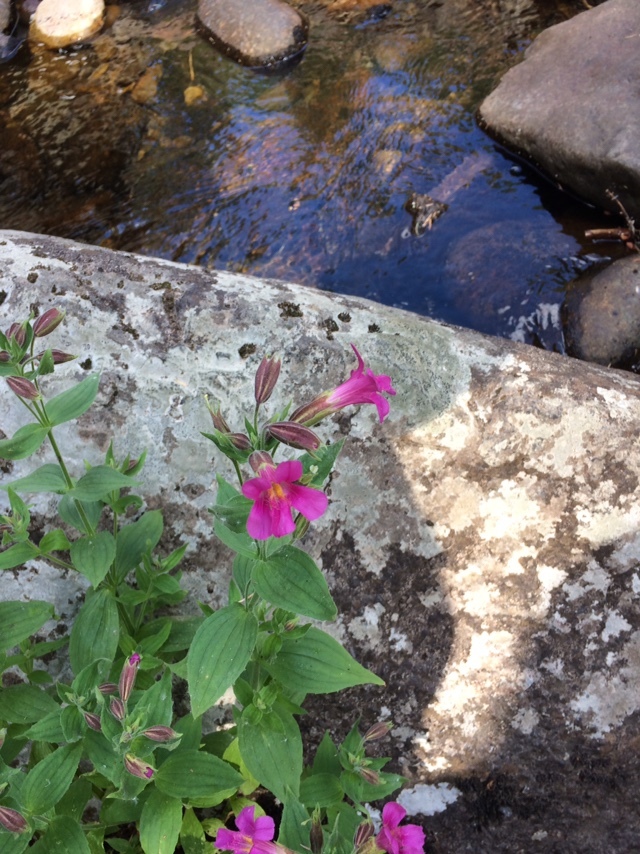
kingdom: Plantae
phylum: Tracheophyta
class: Magnoliopsida
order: Lamiales
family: Phrymaceae
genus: Erythranthe
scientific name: Erythranthe lewisii
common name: Lewis's monkey-flower
